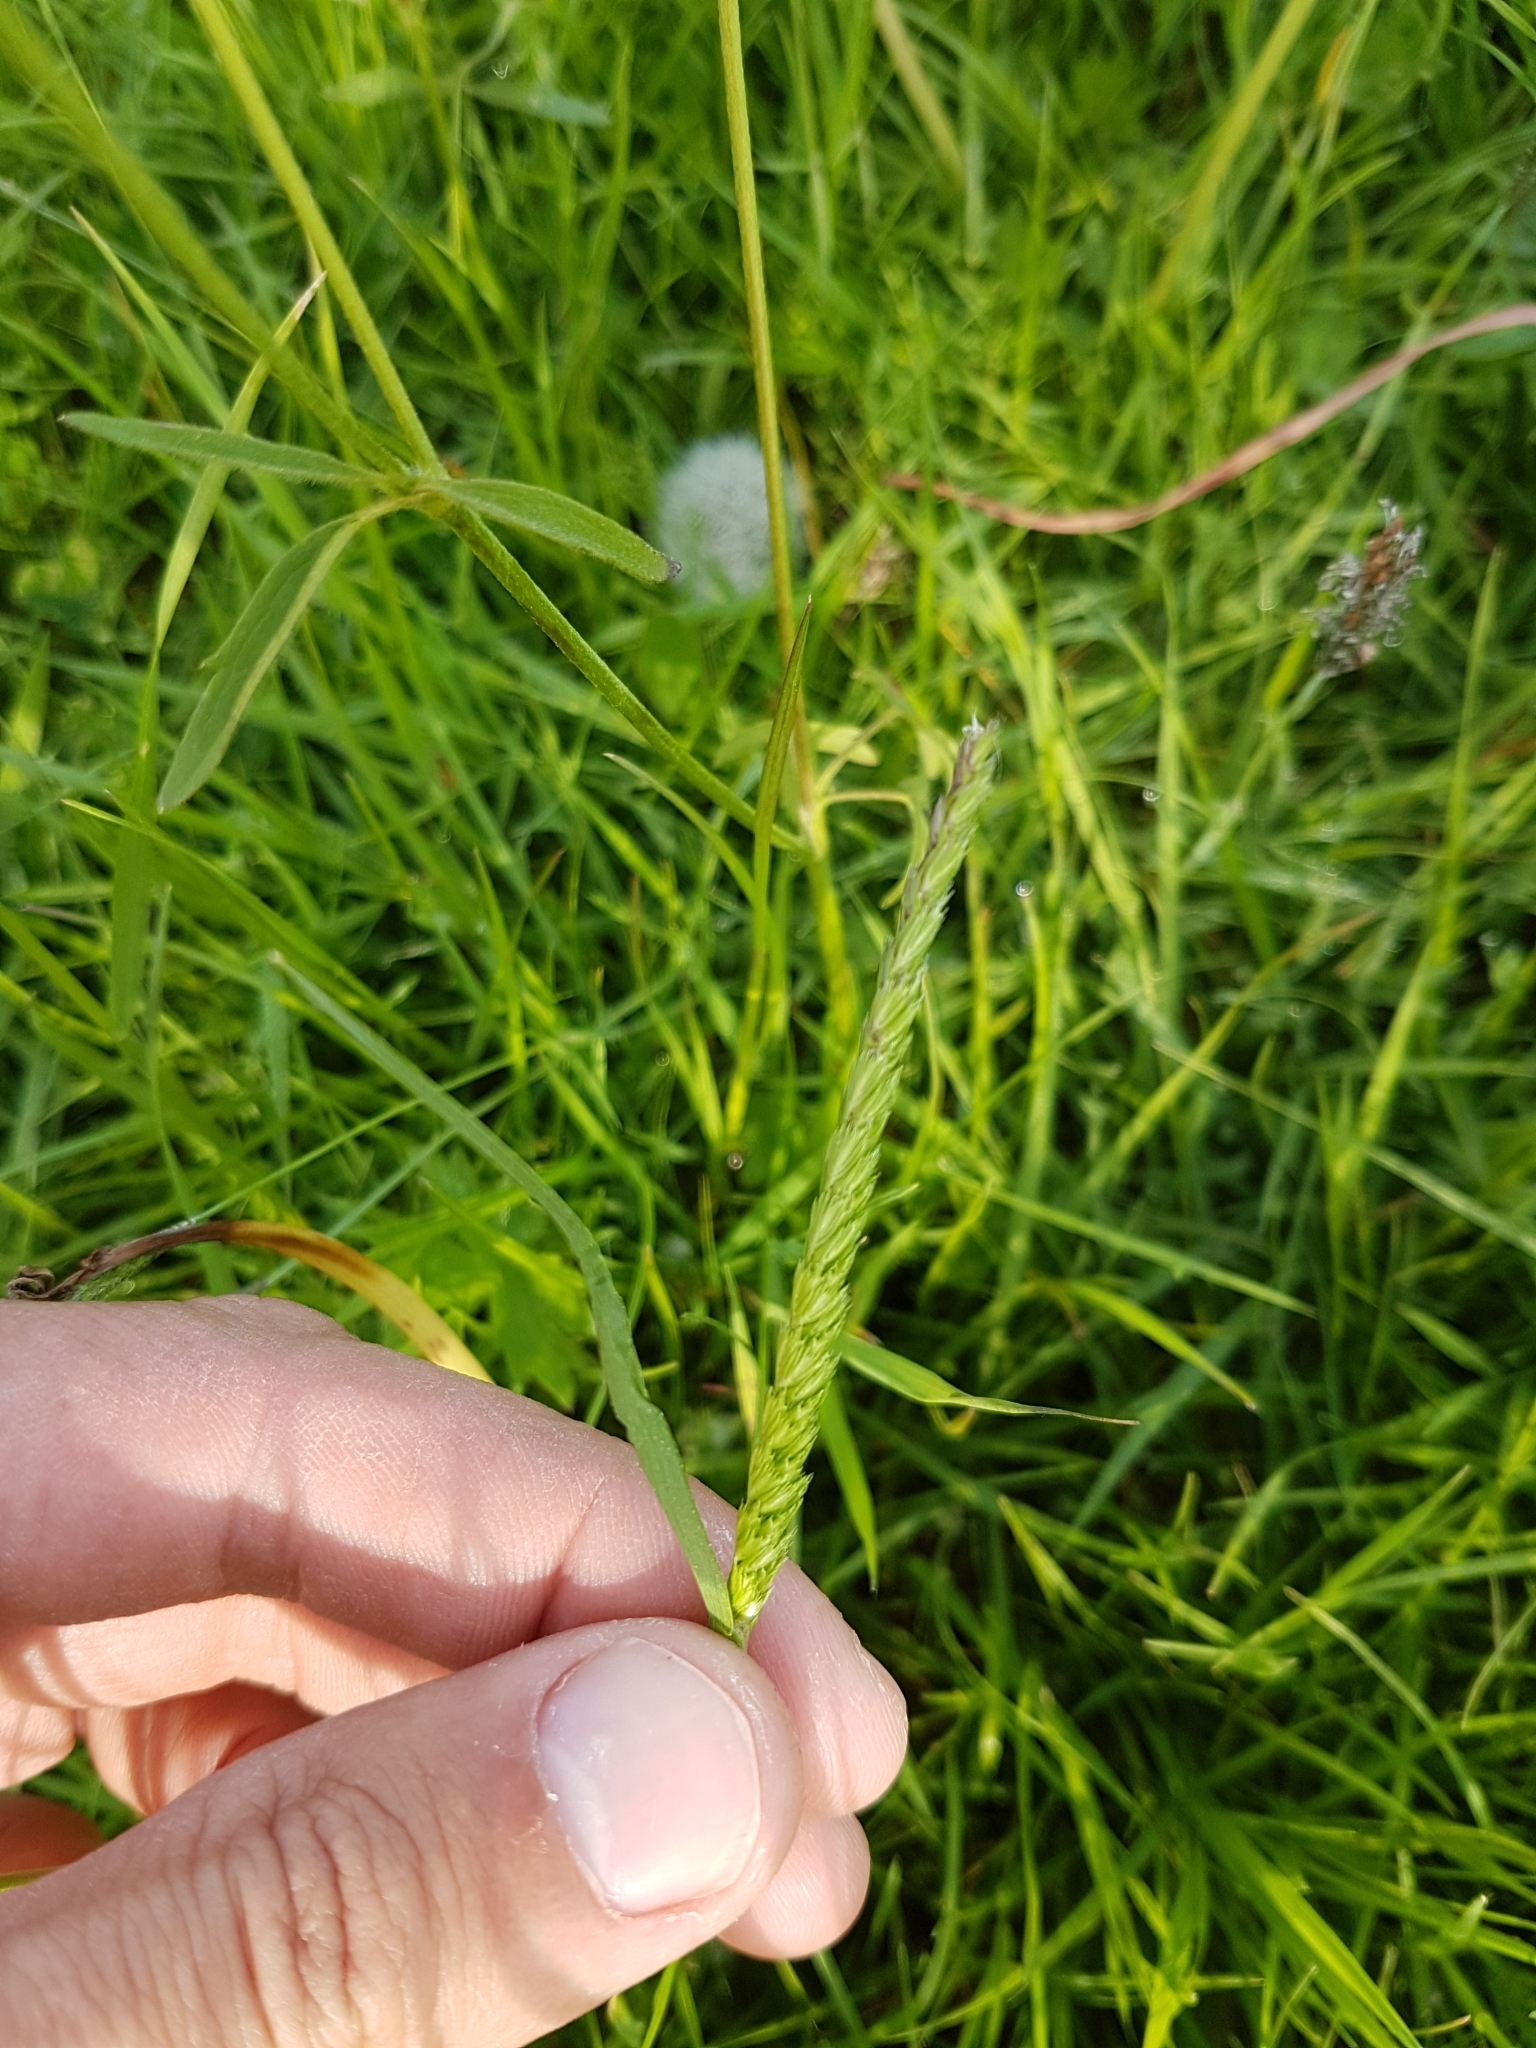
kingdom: Plantae
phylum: Tracheophyta
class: Liliopsida
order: Poales
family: Poaceae
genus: Cynosurus
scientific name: Cynosurus cristatus
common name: Crested dog's-tail
